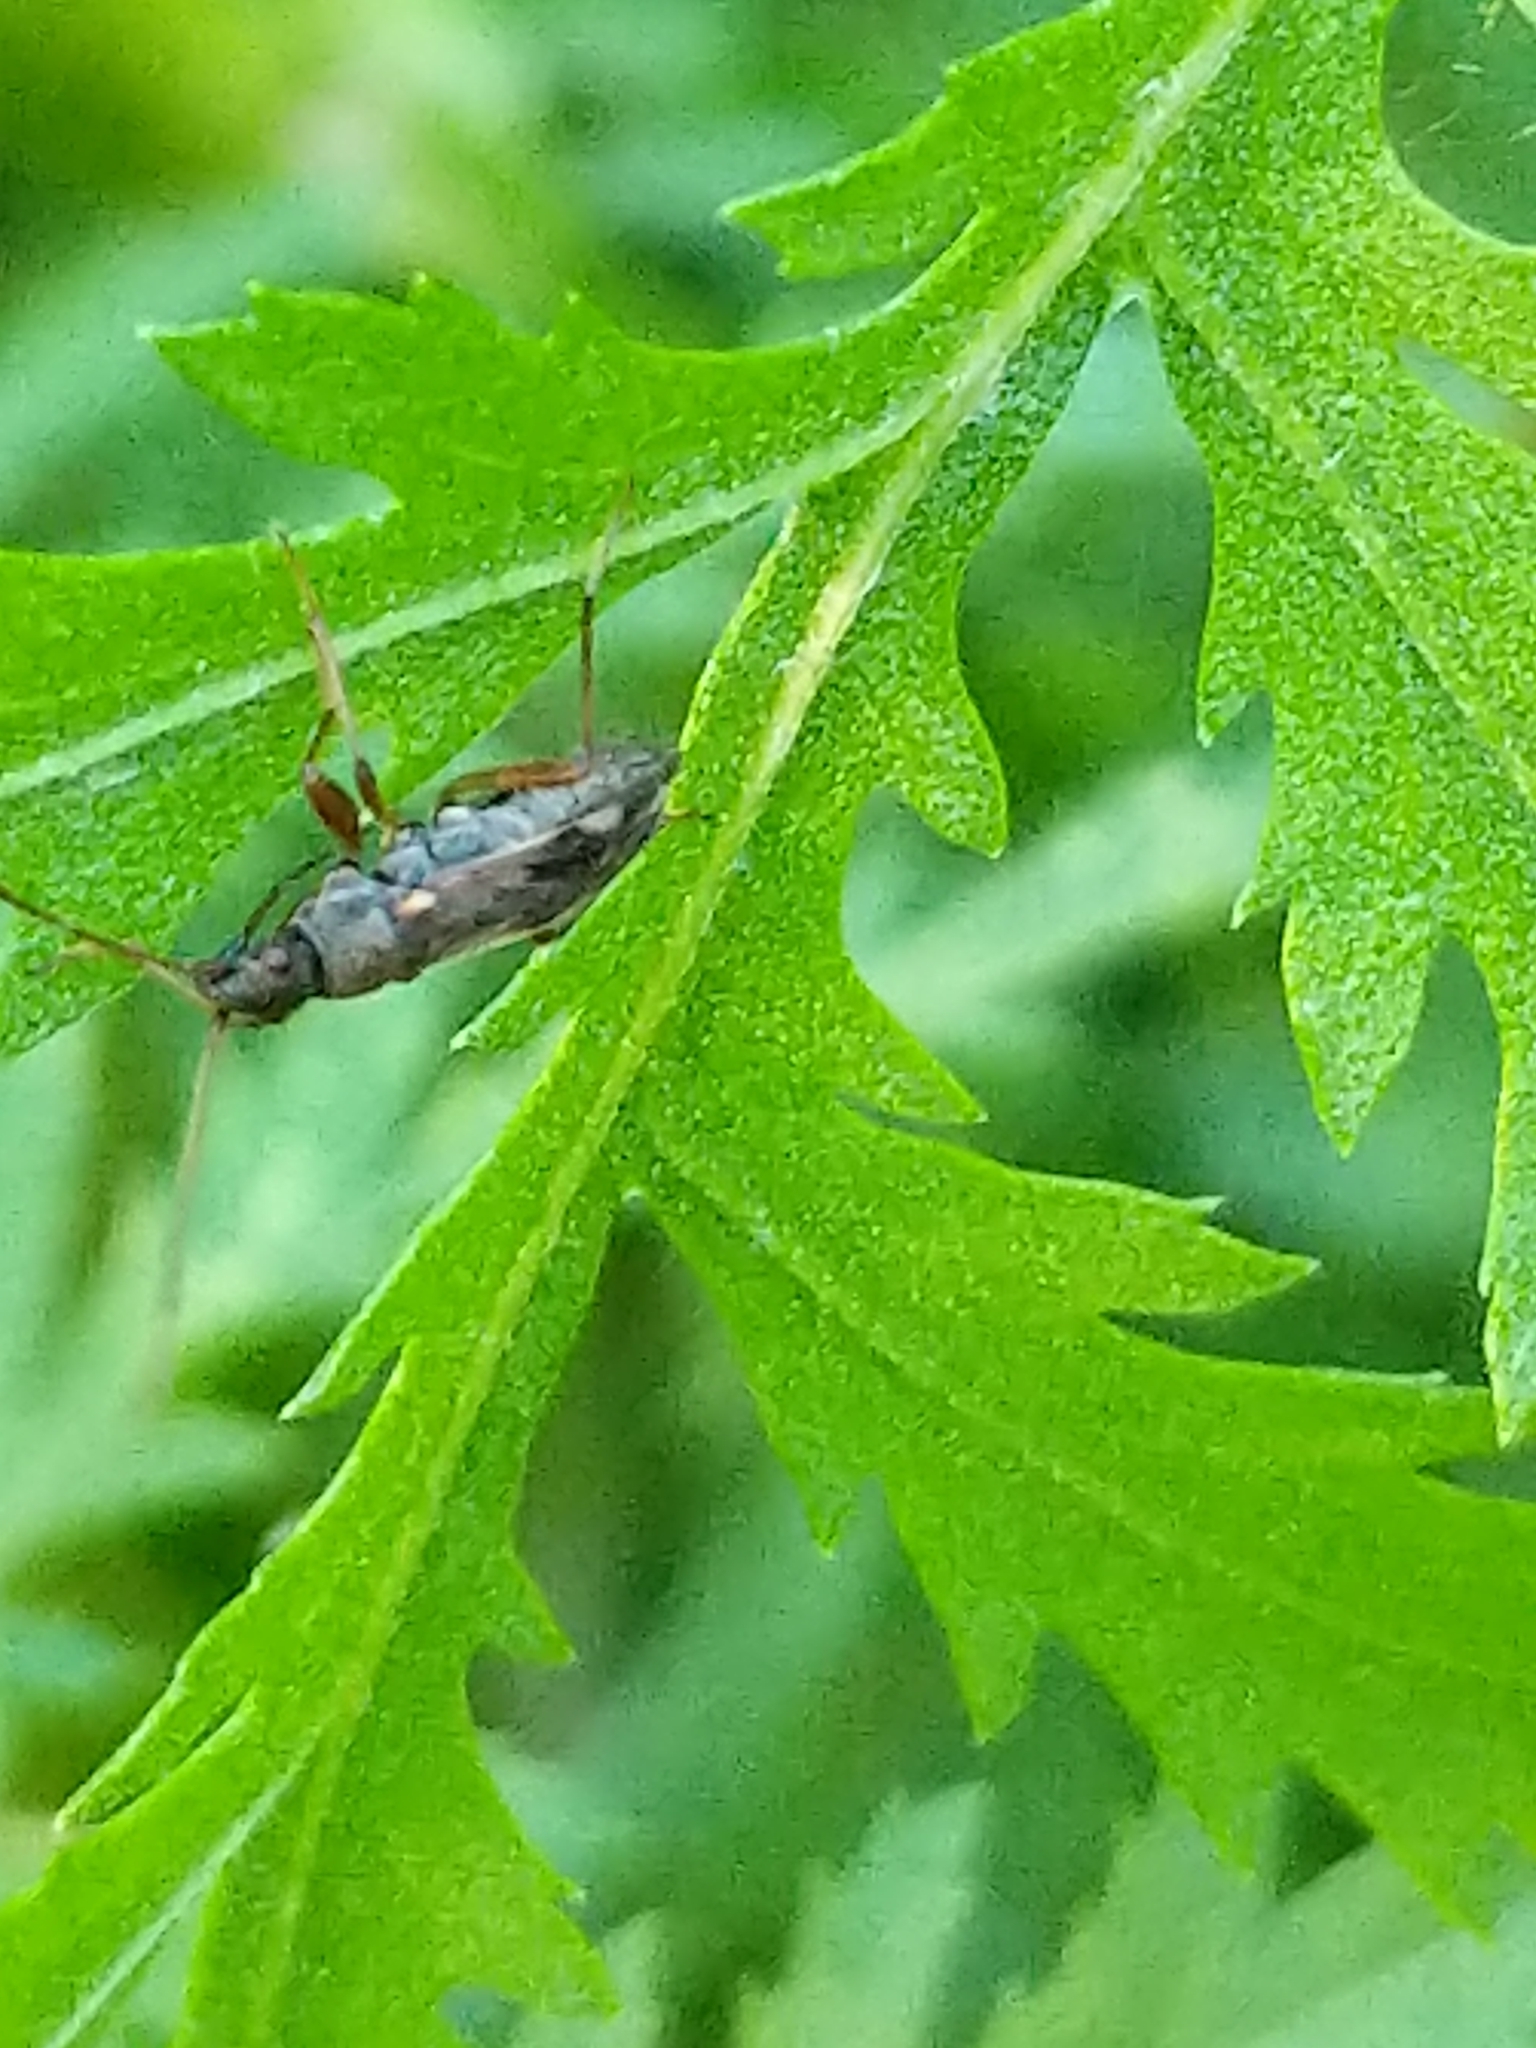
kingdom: Animalia
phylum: Arthropoda
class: Insecta
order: Hemiptera
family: Rhyparochromidae
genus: Ligyrocoris
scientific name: Ligyrocoris sylvestris
